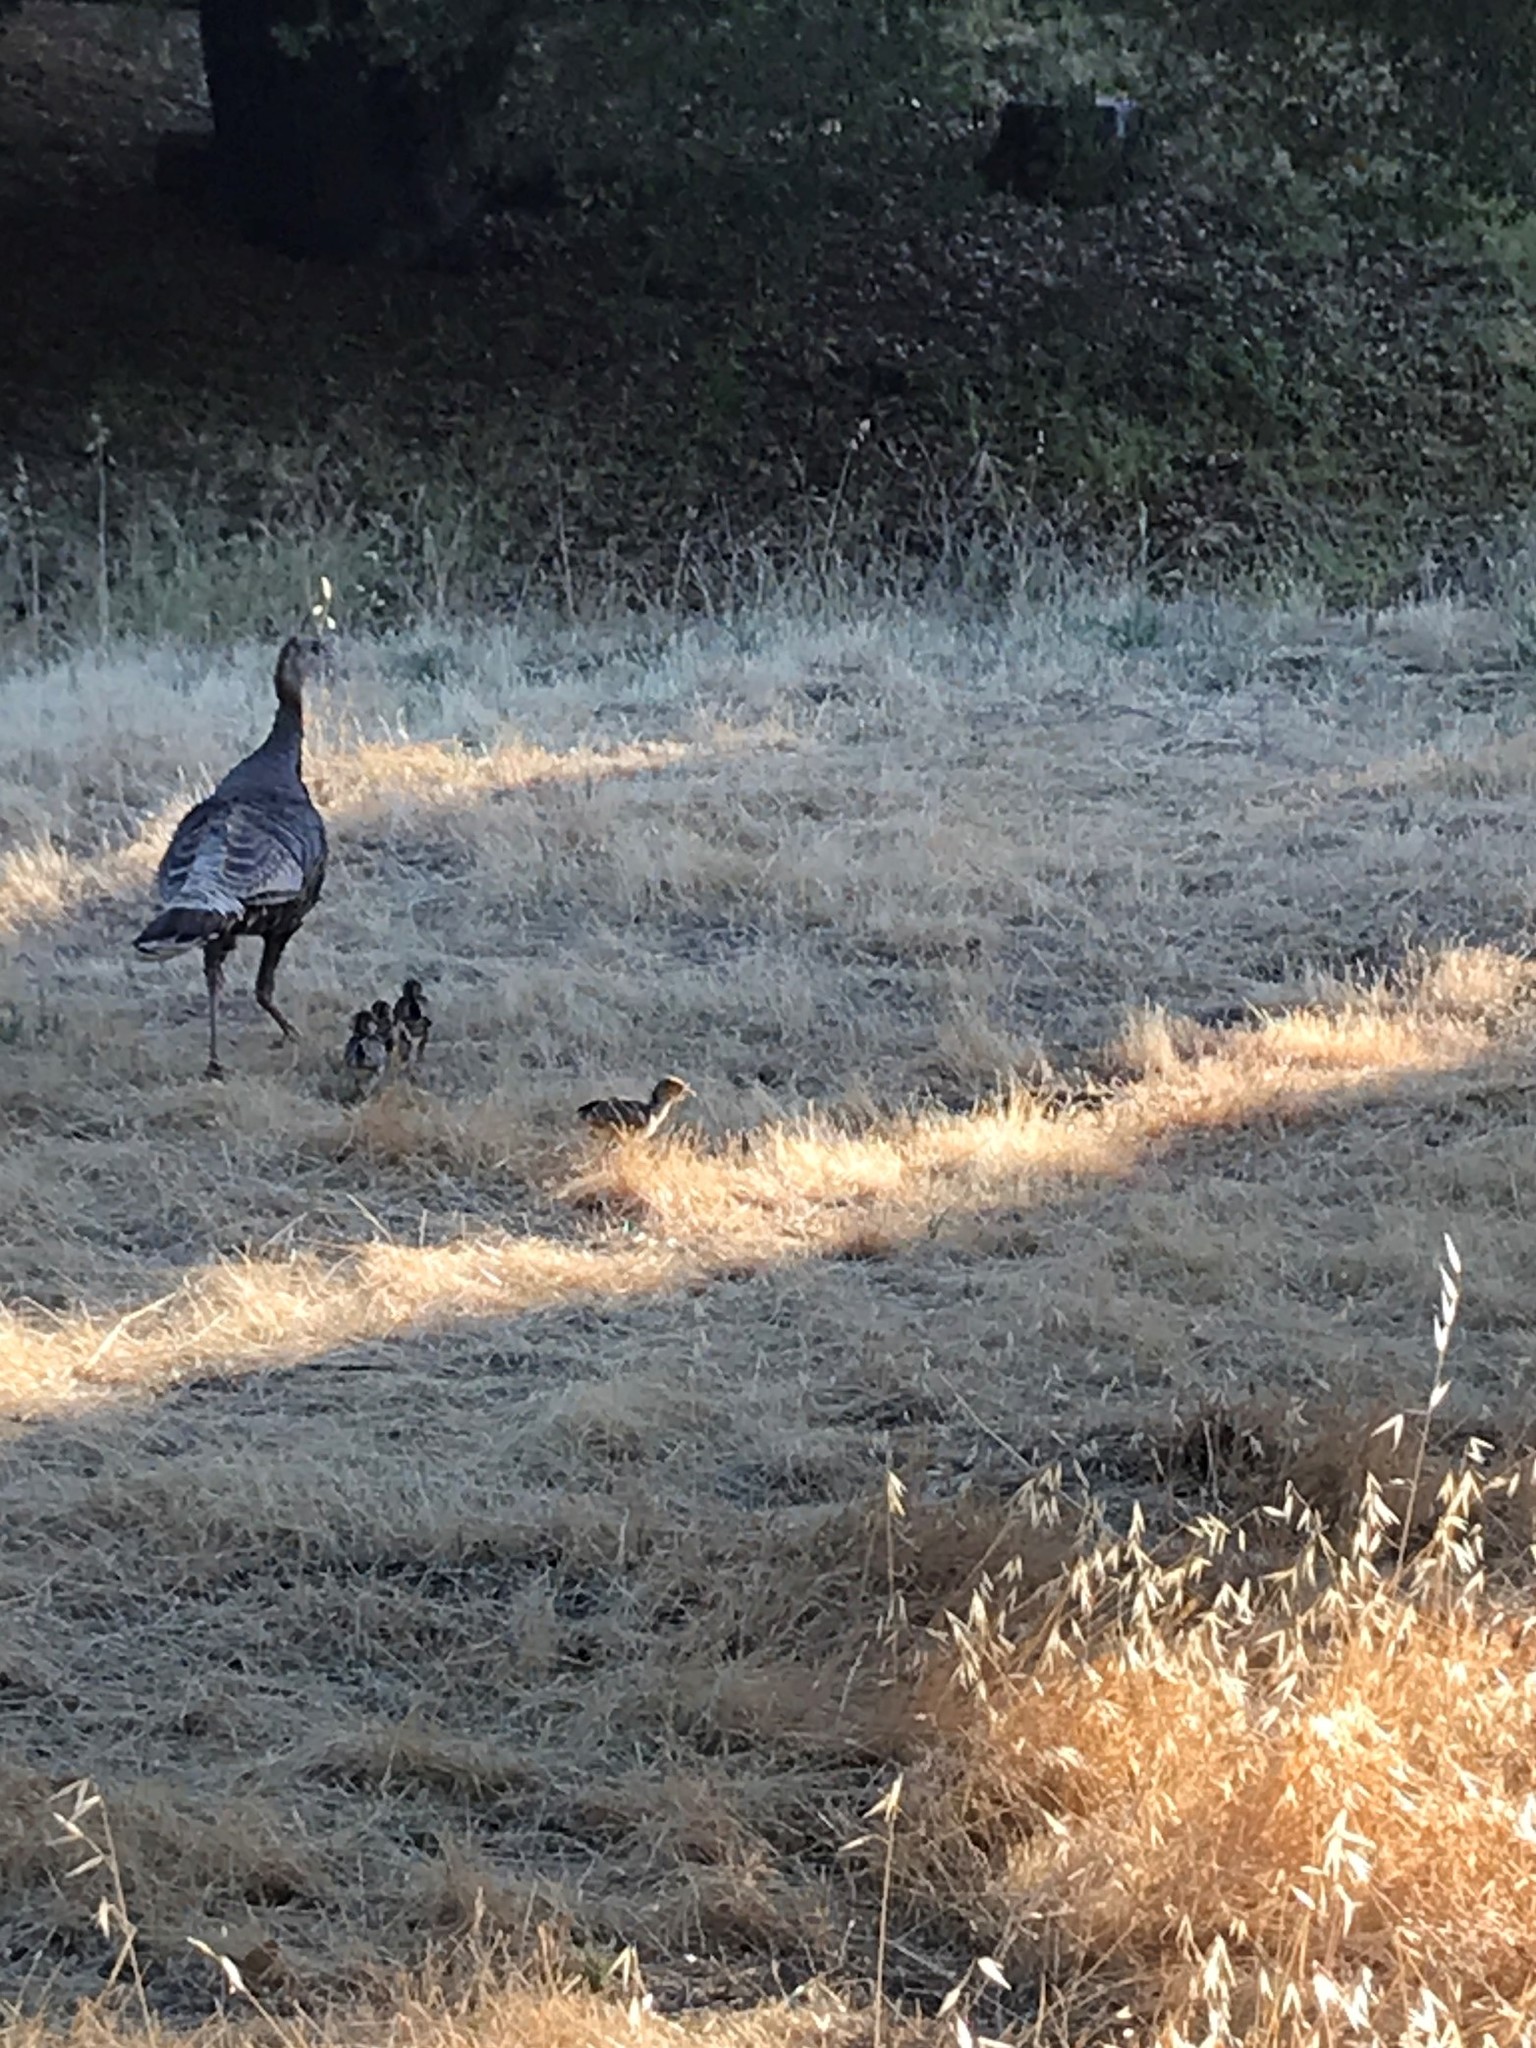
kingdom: Animalia
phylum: Chordata
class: Aves
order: Galliformes
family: Phasianidae
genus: Meleagris
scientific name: Meleagris gallopavo
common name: Wild turkey
